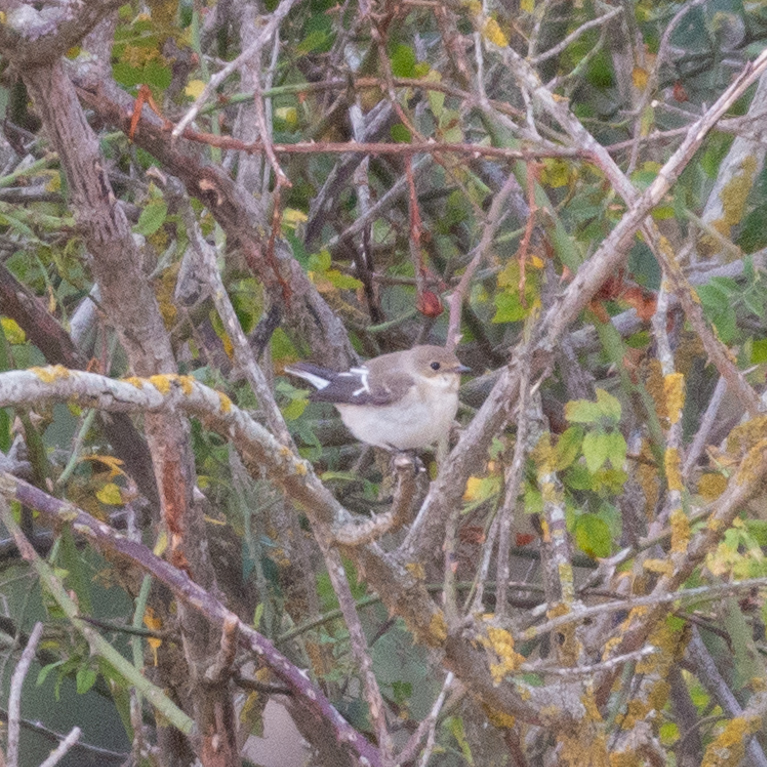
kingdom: Animalia
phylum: Chordata
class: Aves
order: Passeriformes
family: Muscicapidae
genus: Ficedula
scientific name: Ficedula hypoleuca
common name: European pied flycatcher
